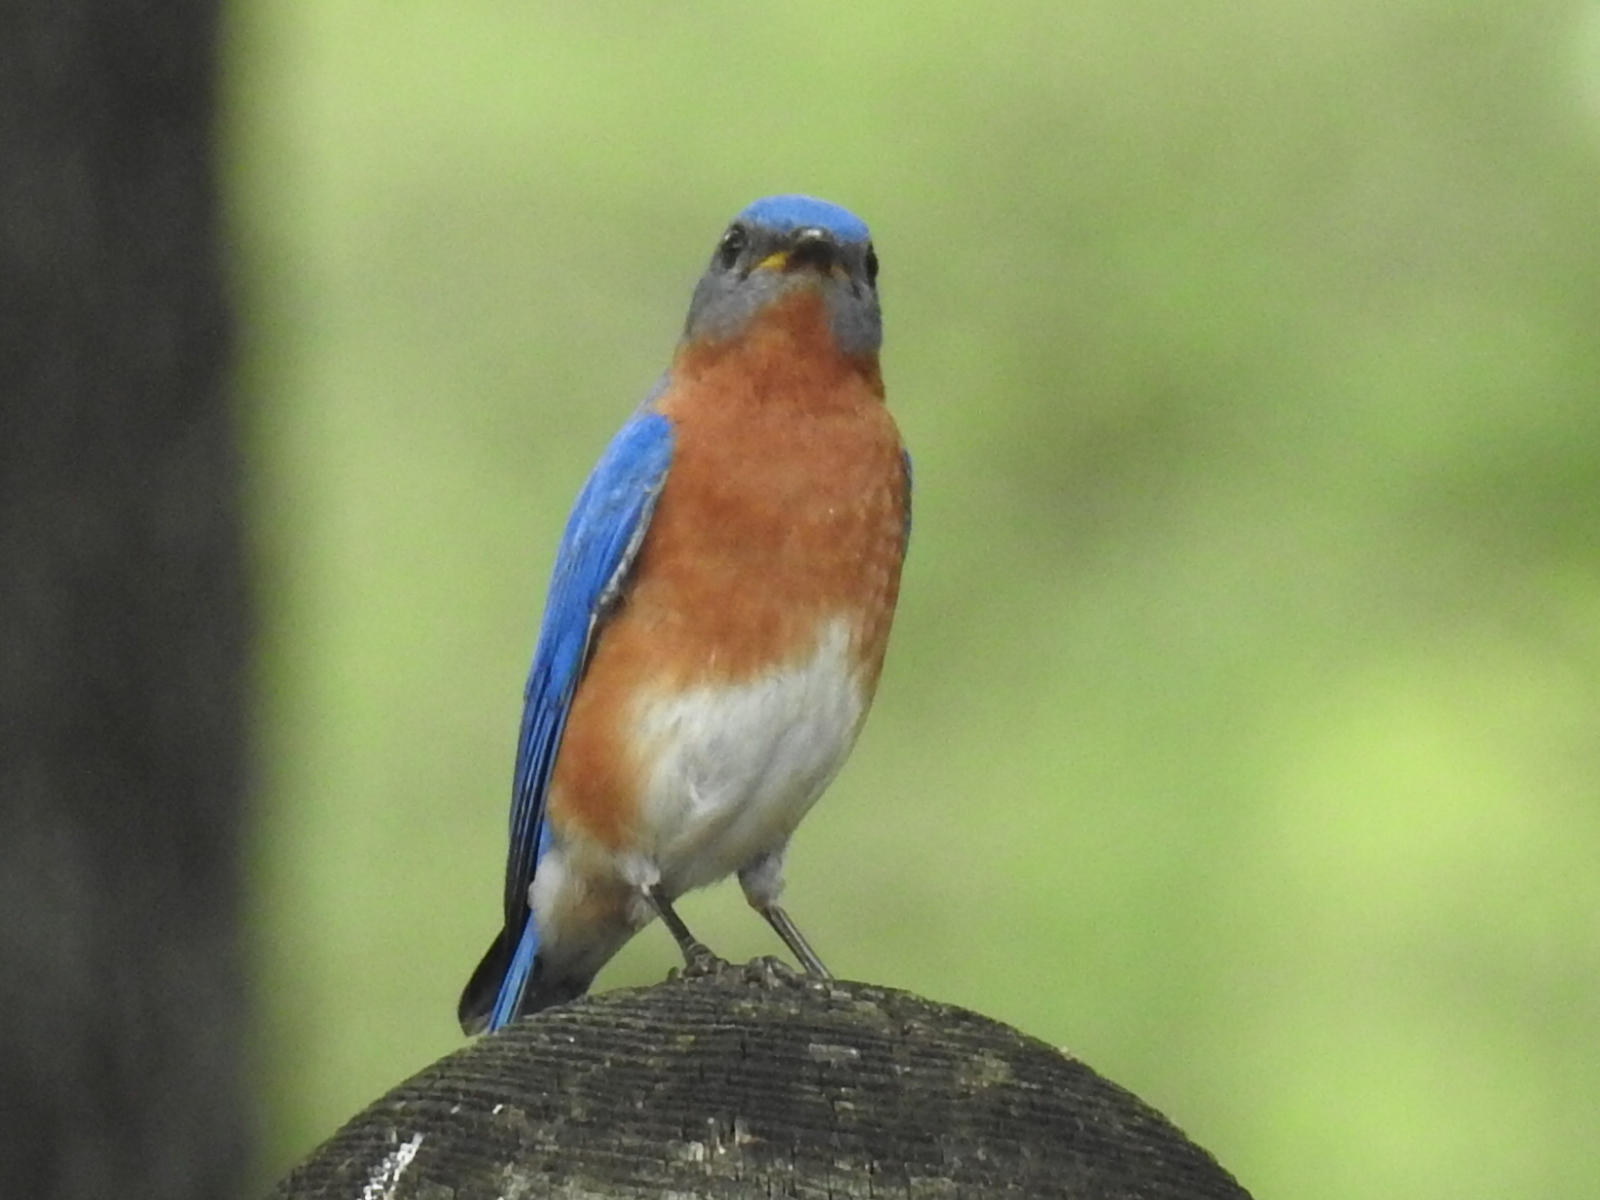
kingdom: Animalia
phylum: Chordata
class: Aves
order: Passeriformes
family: Turdidae
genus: Sialia
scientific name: Sialia sialis
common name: Eastern bluebird
